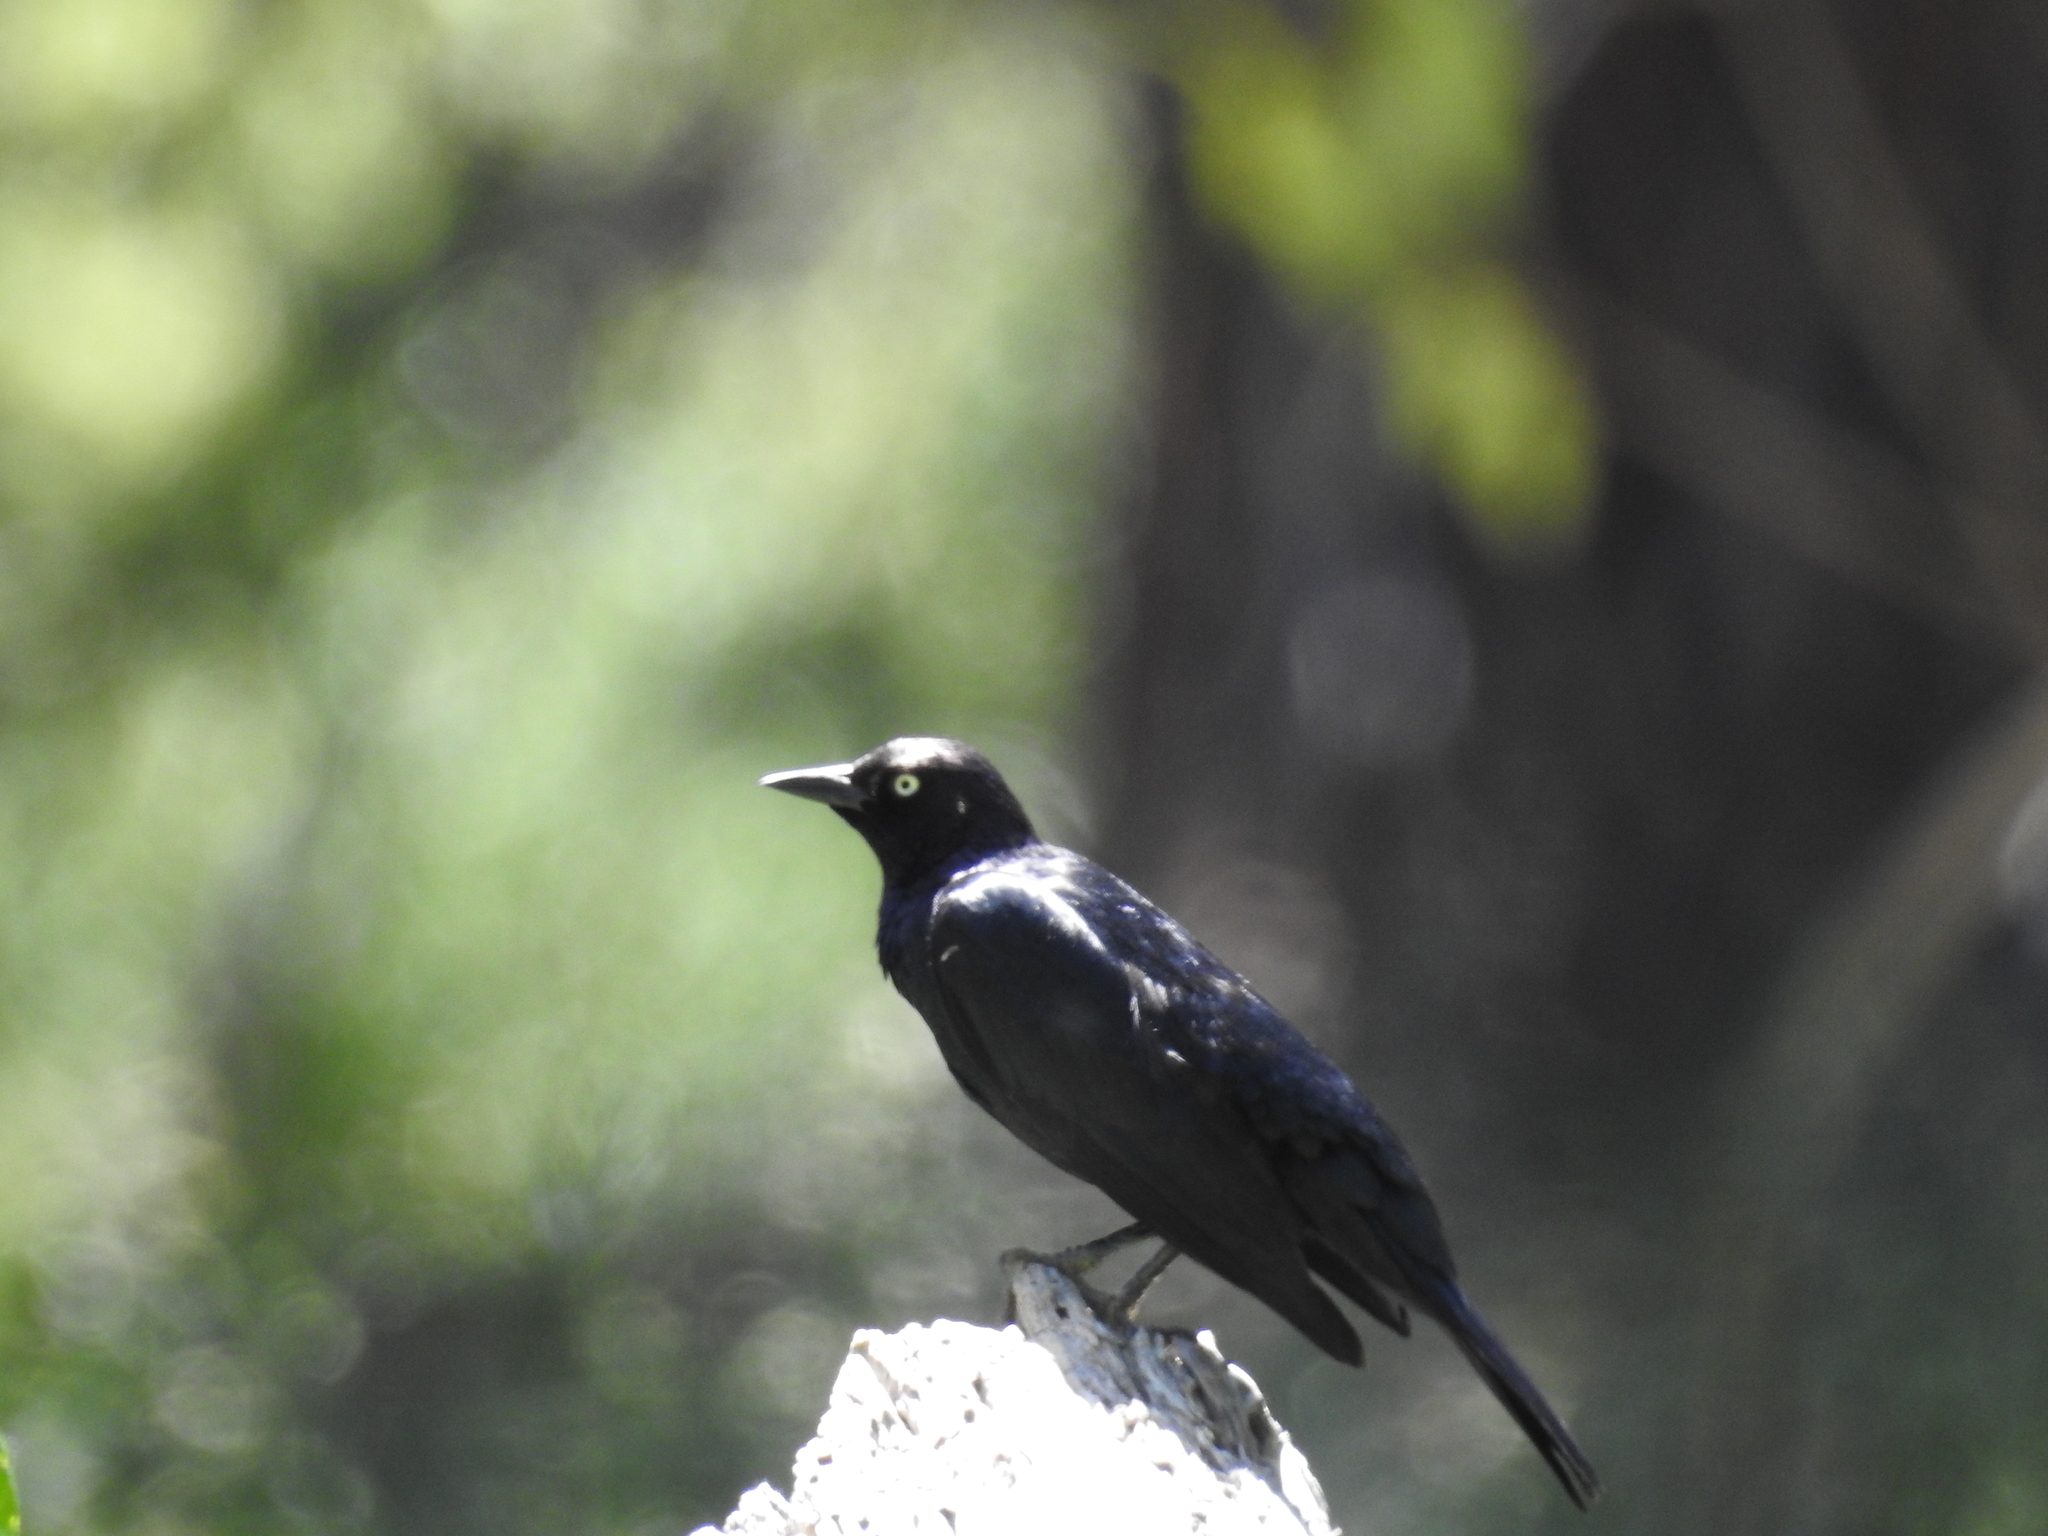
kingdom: Animalia
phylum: Chordata
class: Aves
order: Passeriformes
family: Icteridae
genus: Euphagus
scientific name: Euphagus cyanocephalus
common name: Brewer's blackbird
